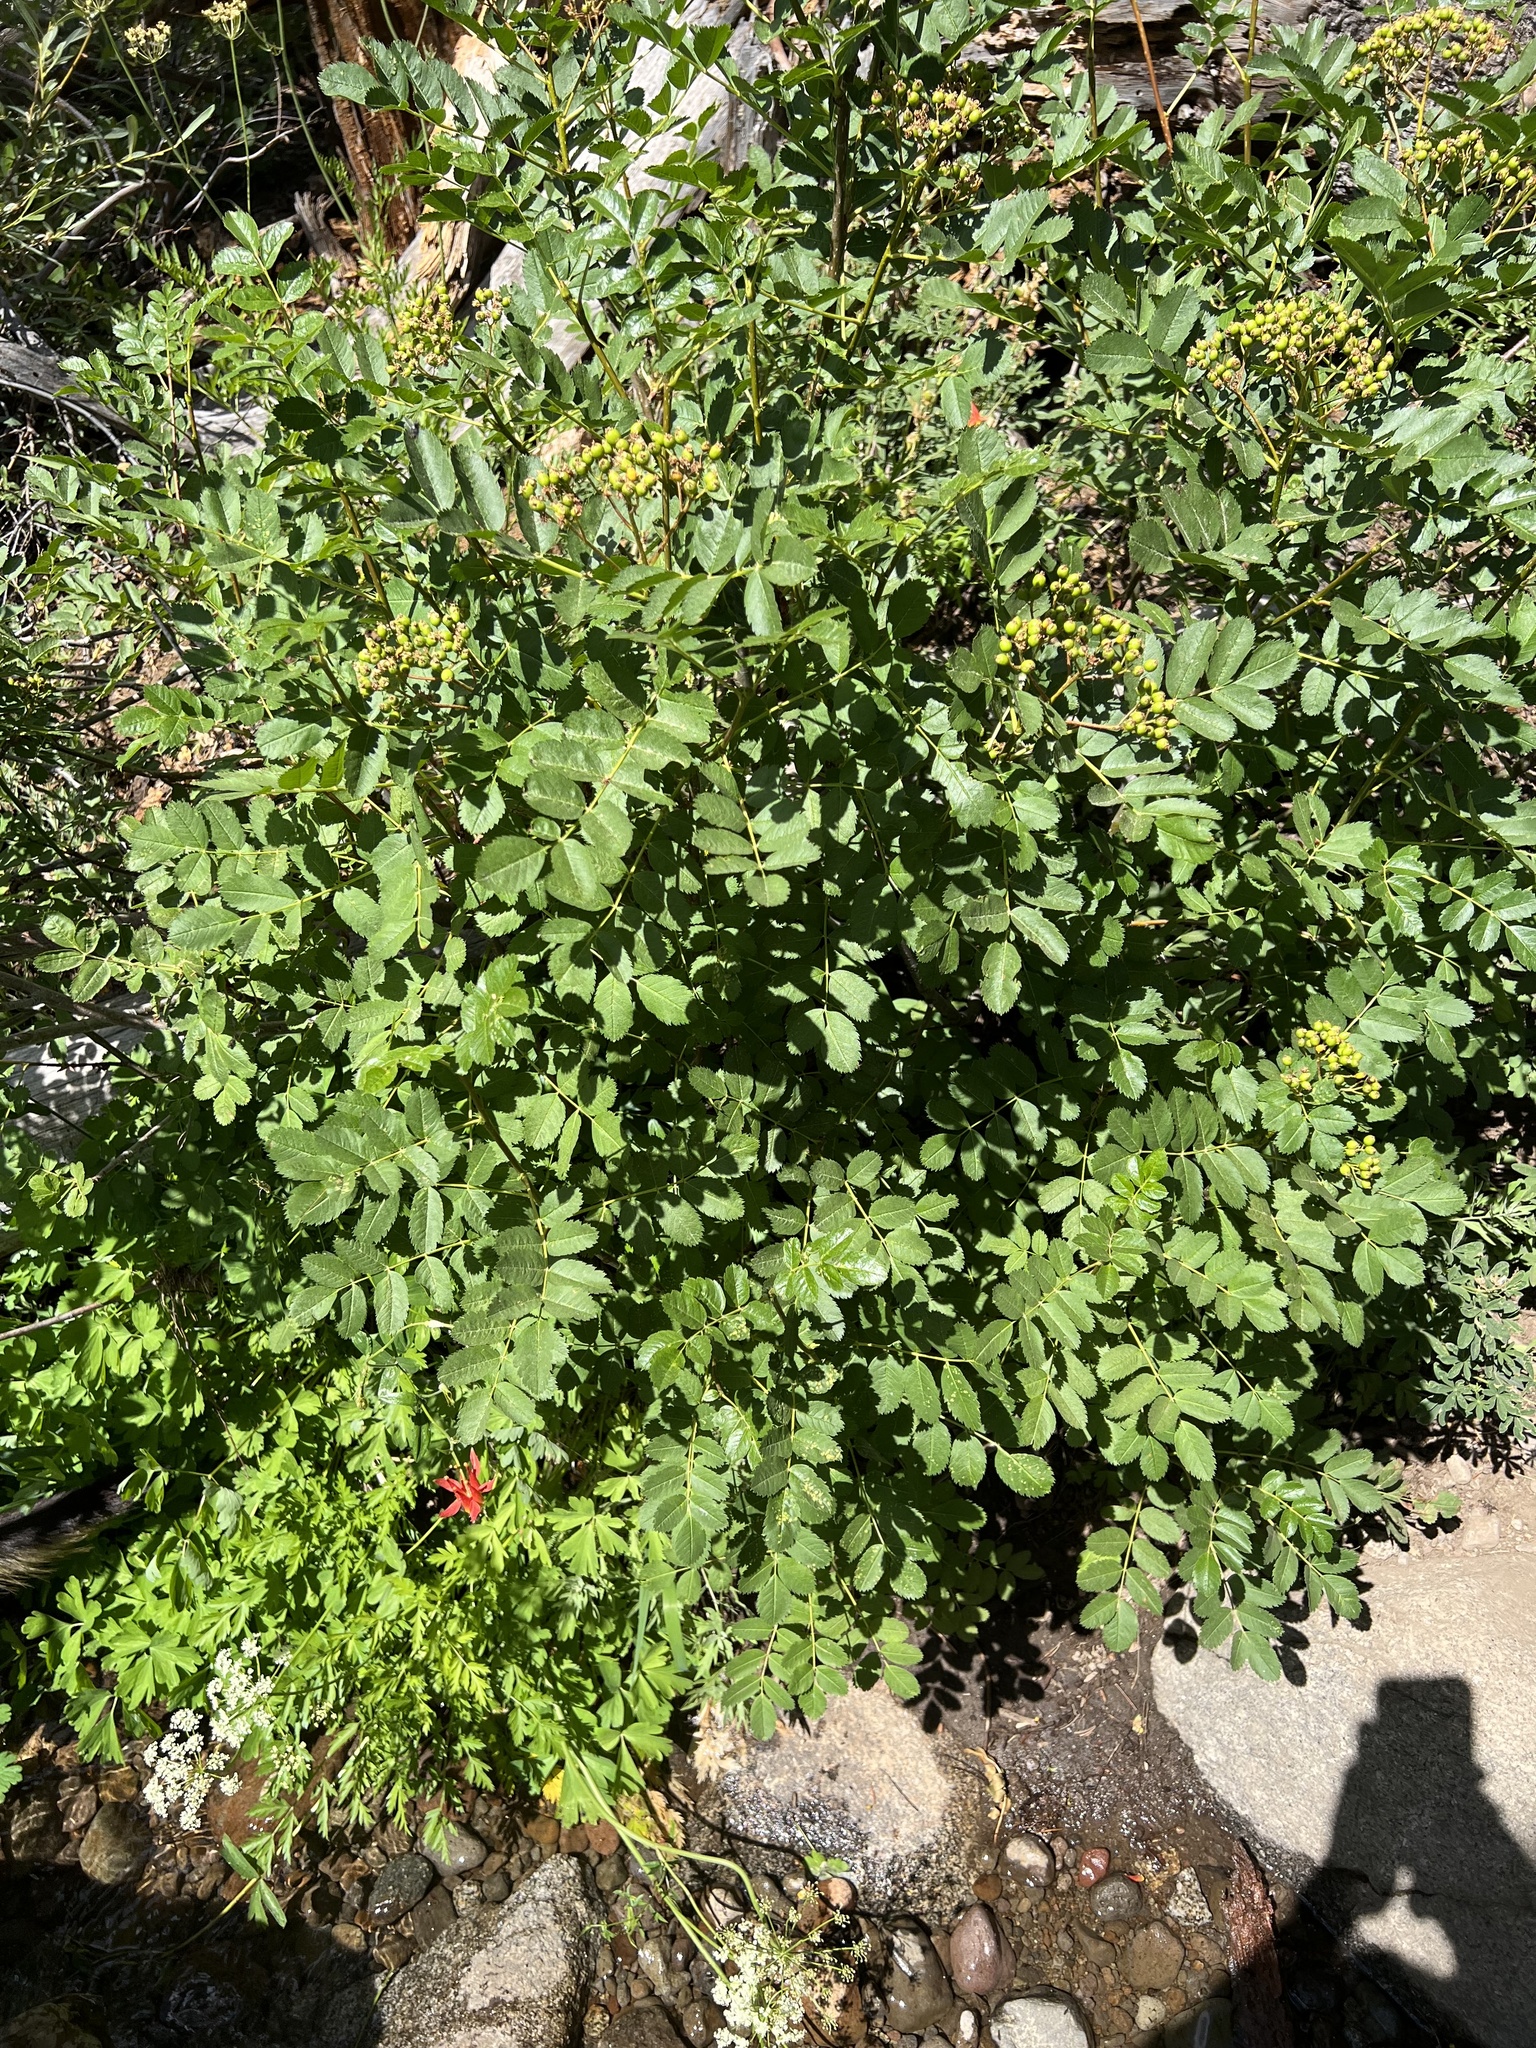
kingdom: Plantae
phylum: Tracheophyta
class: Magnoliopsida
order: Rosales
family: Rosaceae
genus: Sorbus
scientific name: Sorbus californica
